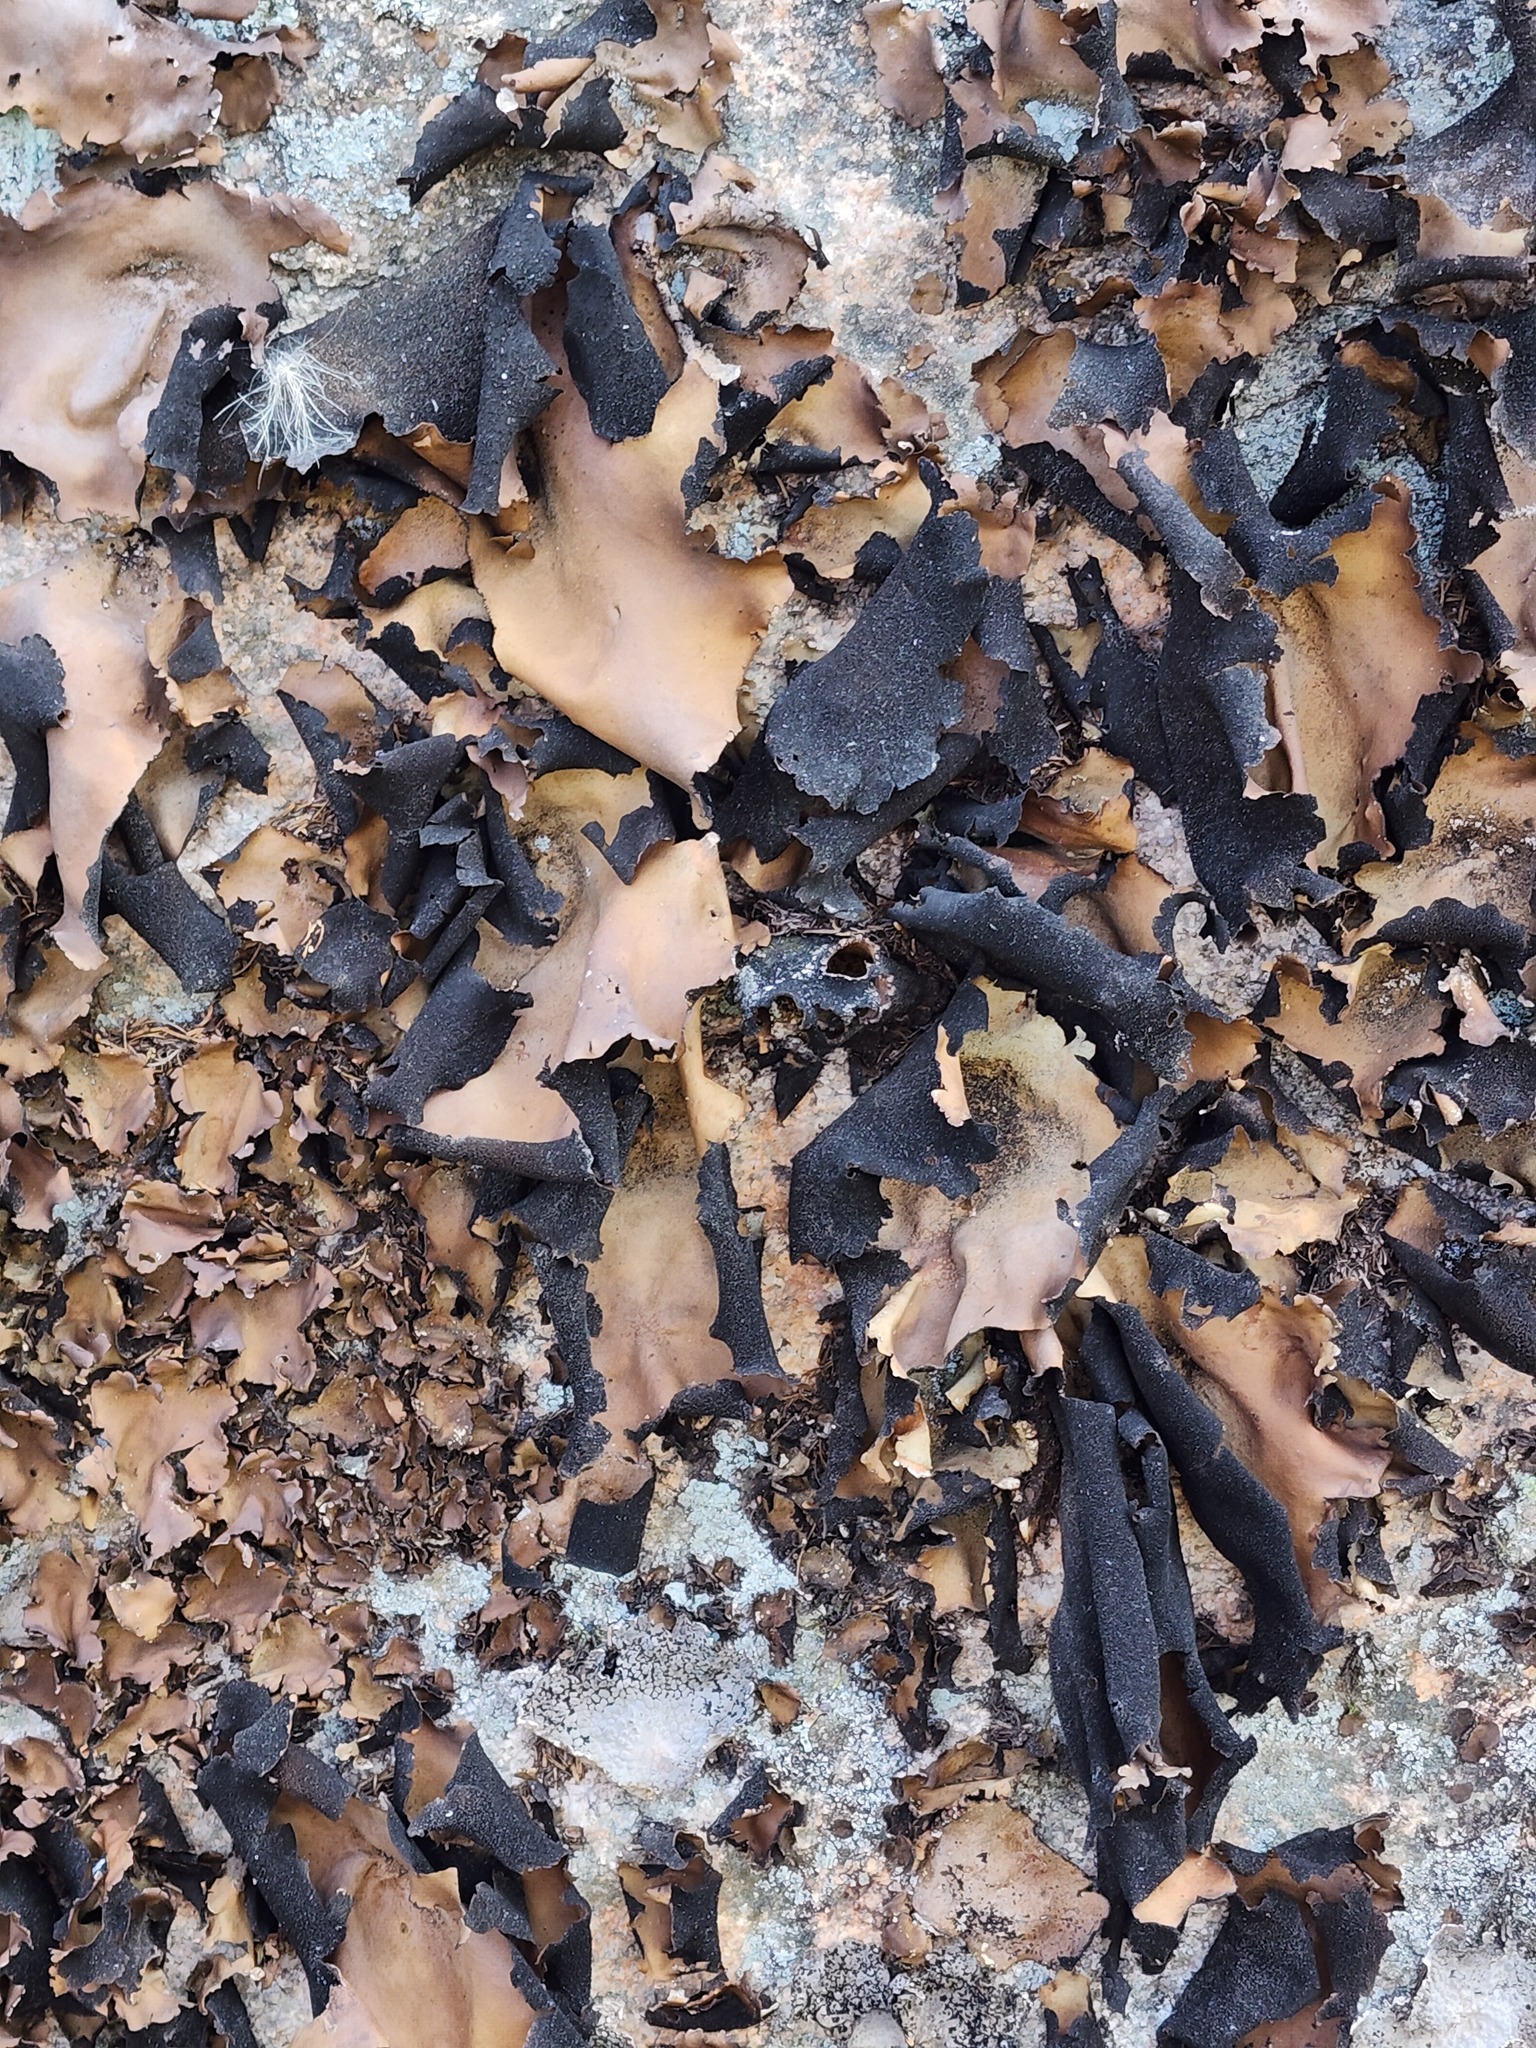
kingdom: Fungi
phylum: Ascomycota
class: Lecanoromycetes
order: Umbilicariales
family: Umbilicariaceae
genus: Umbilicaria
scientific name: Umbilicaria mammulata
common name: Smooth rock tripe
